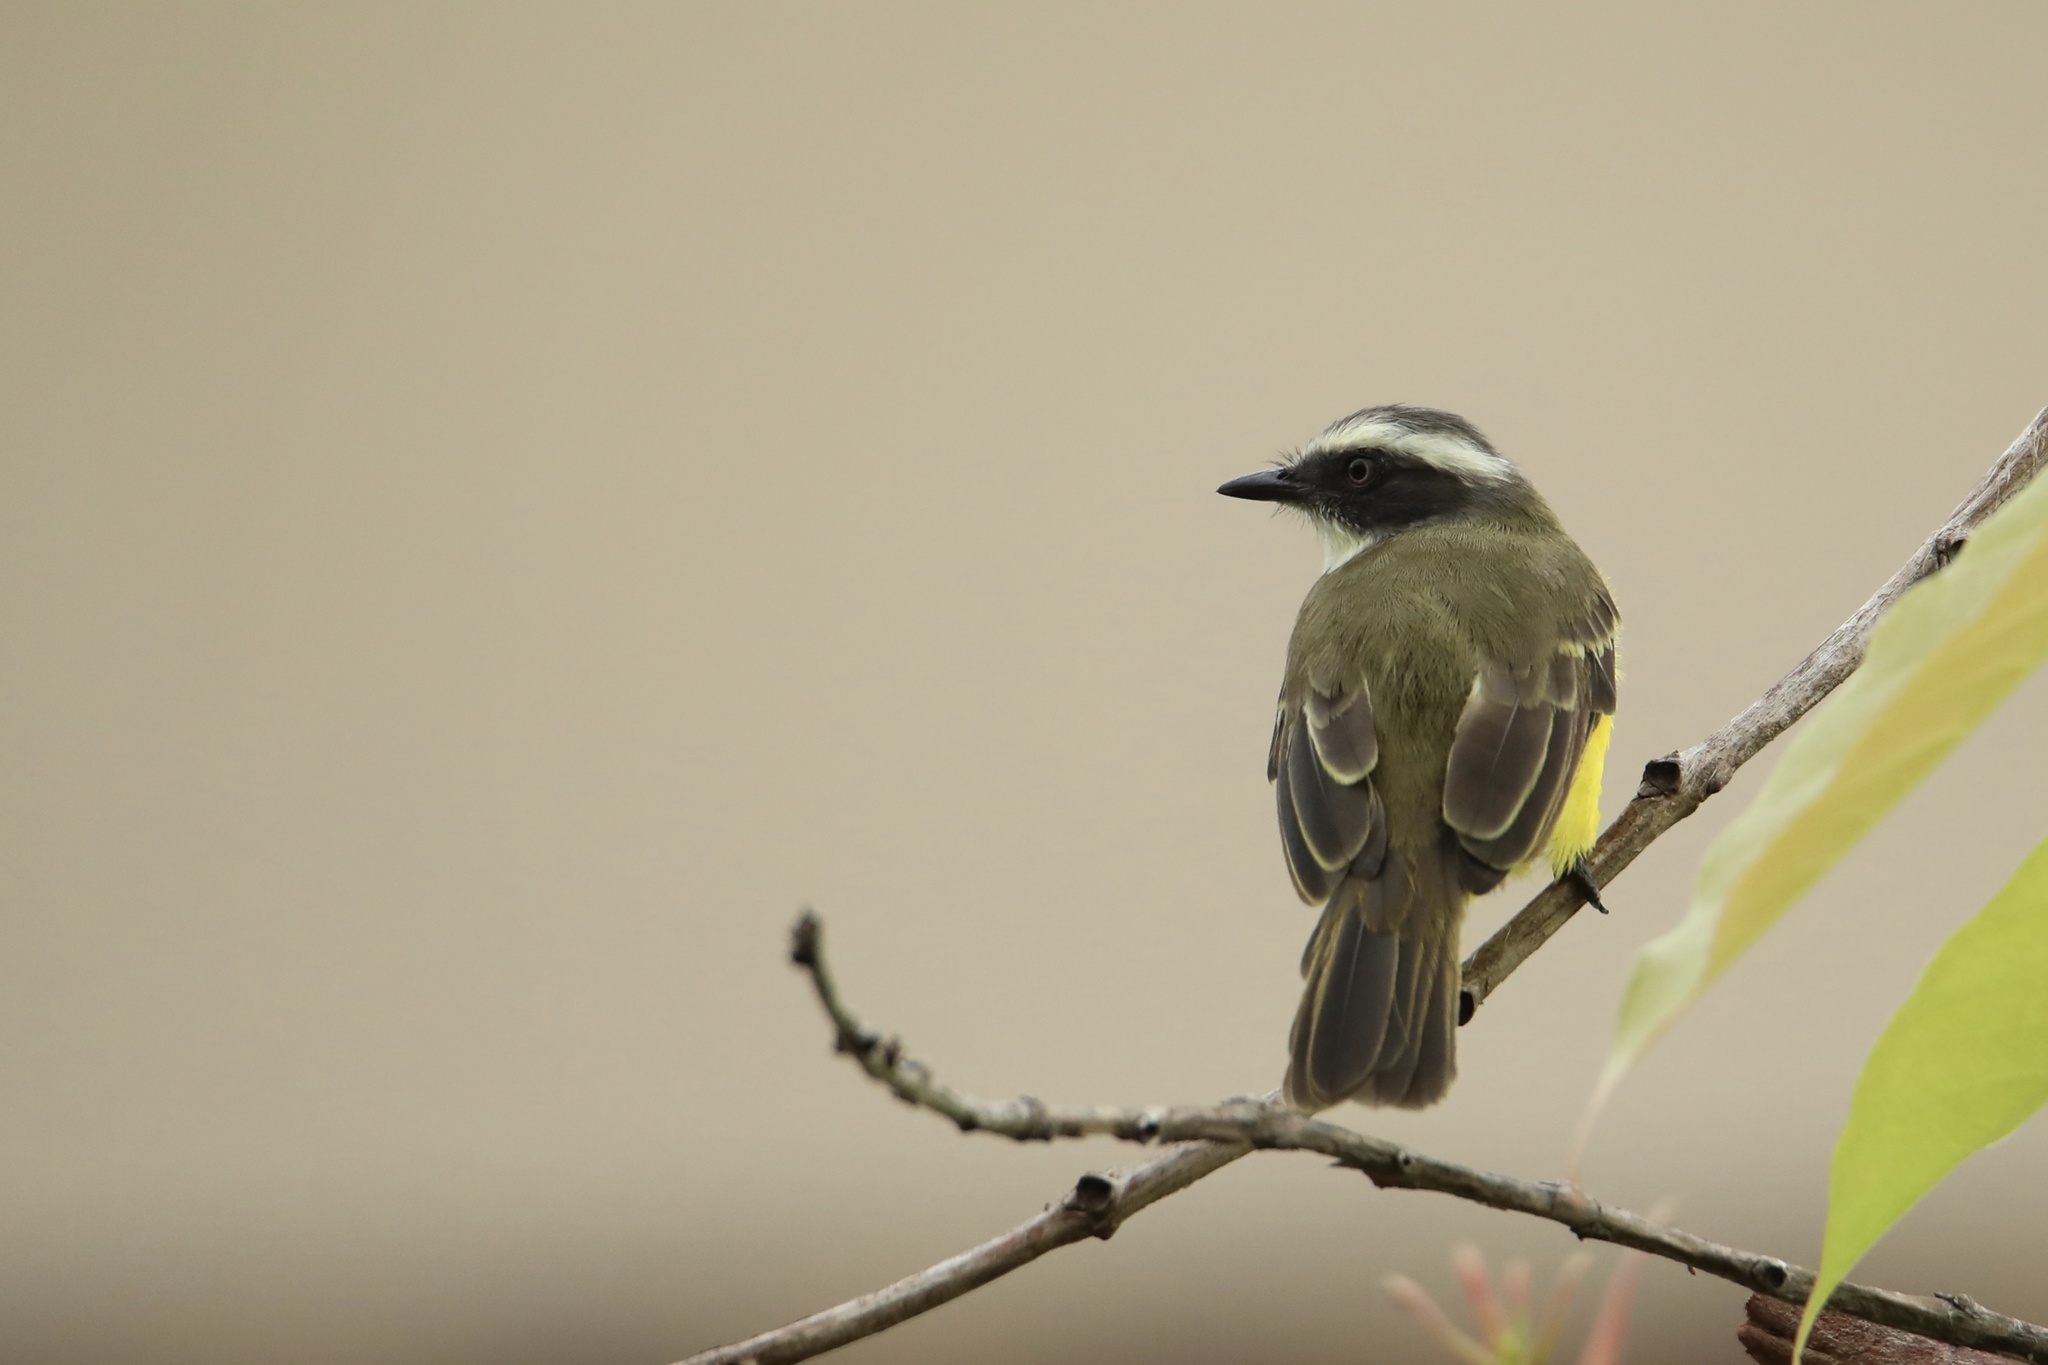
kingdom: Animalia
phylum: Chordata
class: Aves
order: Passeriformes
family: Tyrannidae
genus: Myiozetetes
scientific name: Myiozetetes similis
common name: Social flycatcher
